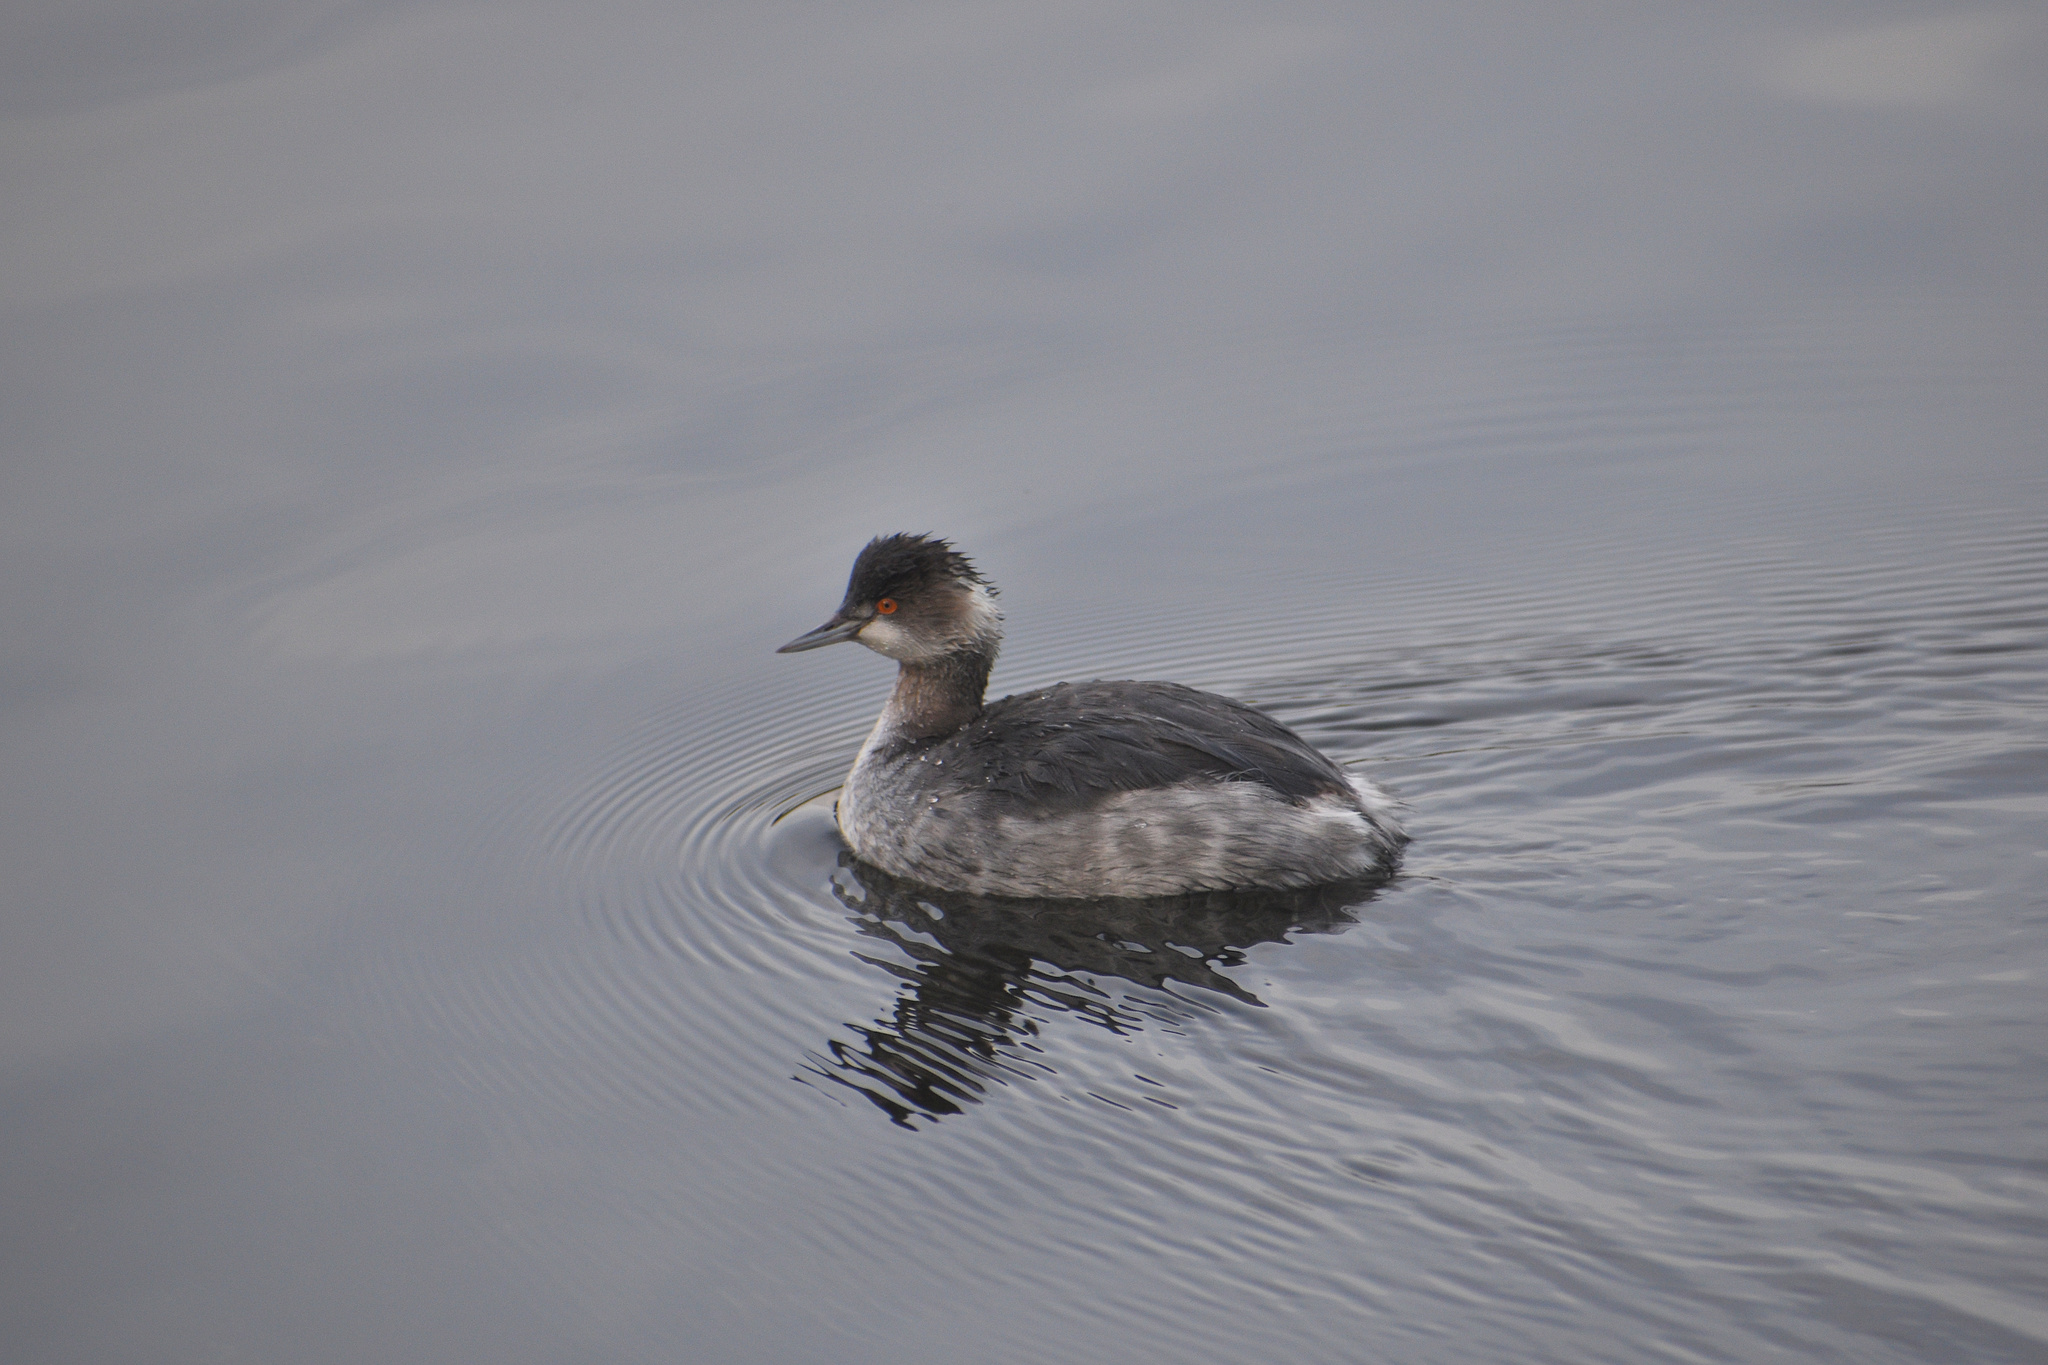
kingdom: Animalia
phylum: Chordata
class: Aves
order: Podicipediformes
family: Podicipedidae
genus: Podiceps
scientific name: Podiceps nigricollis
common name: Black-necked grebe
